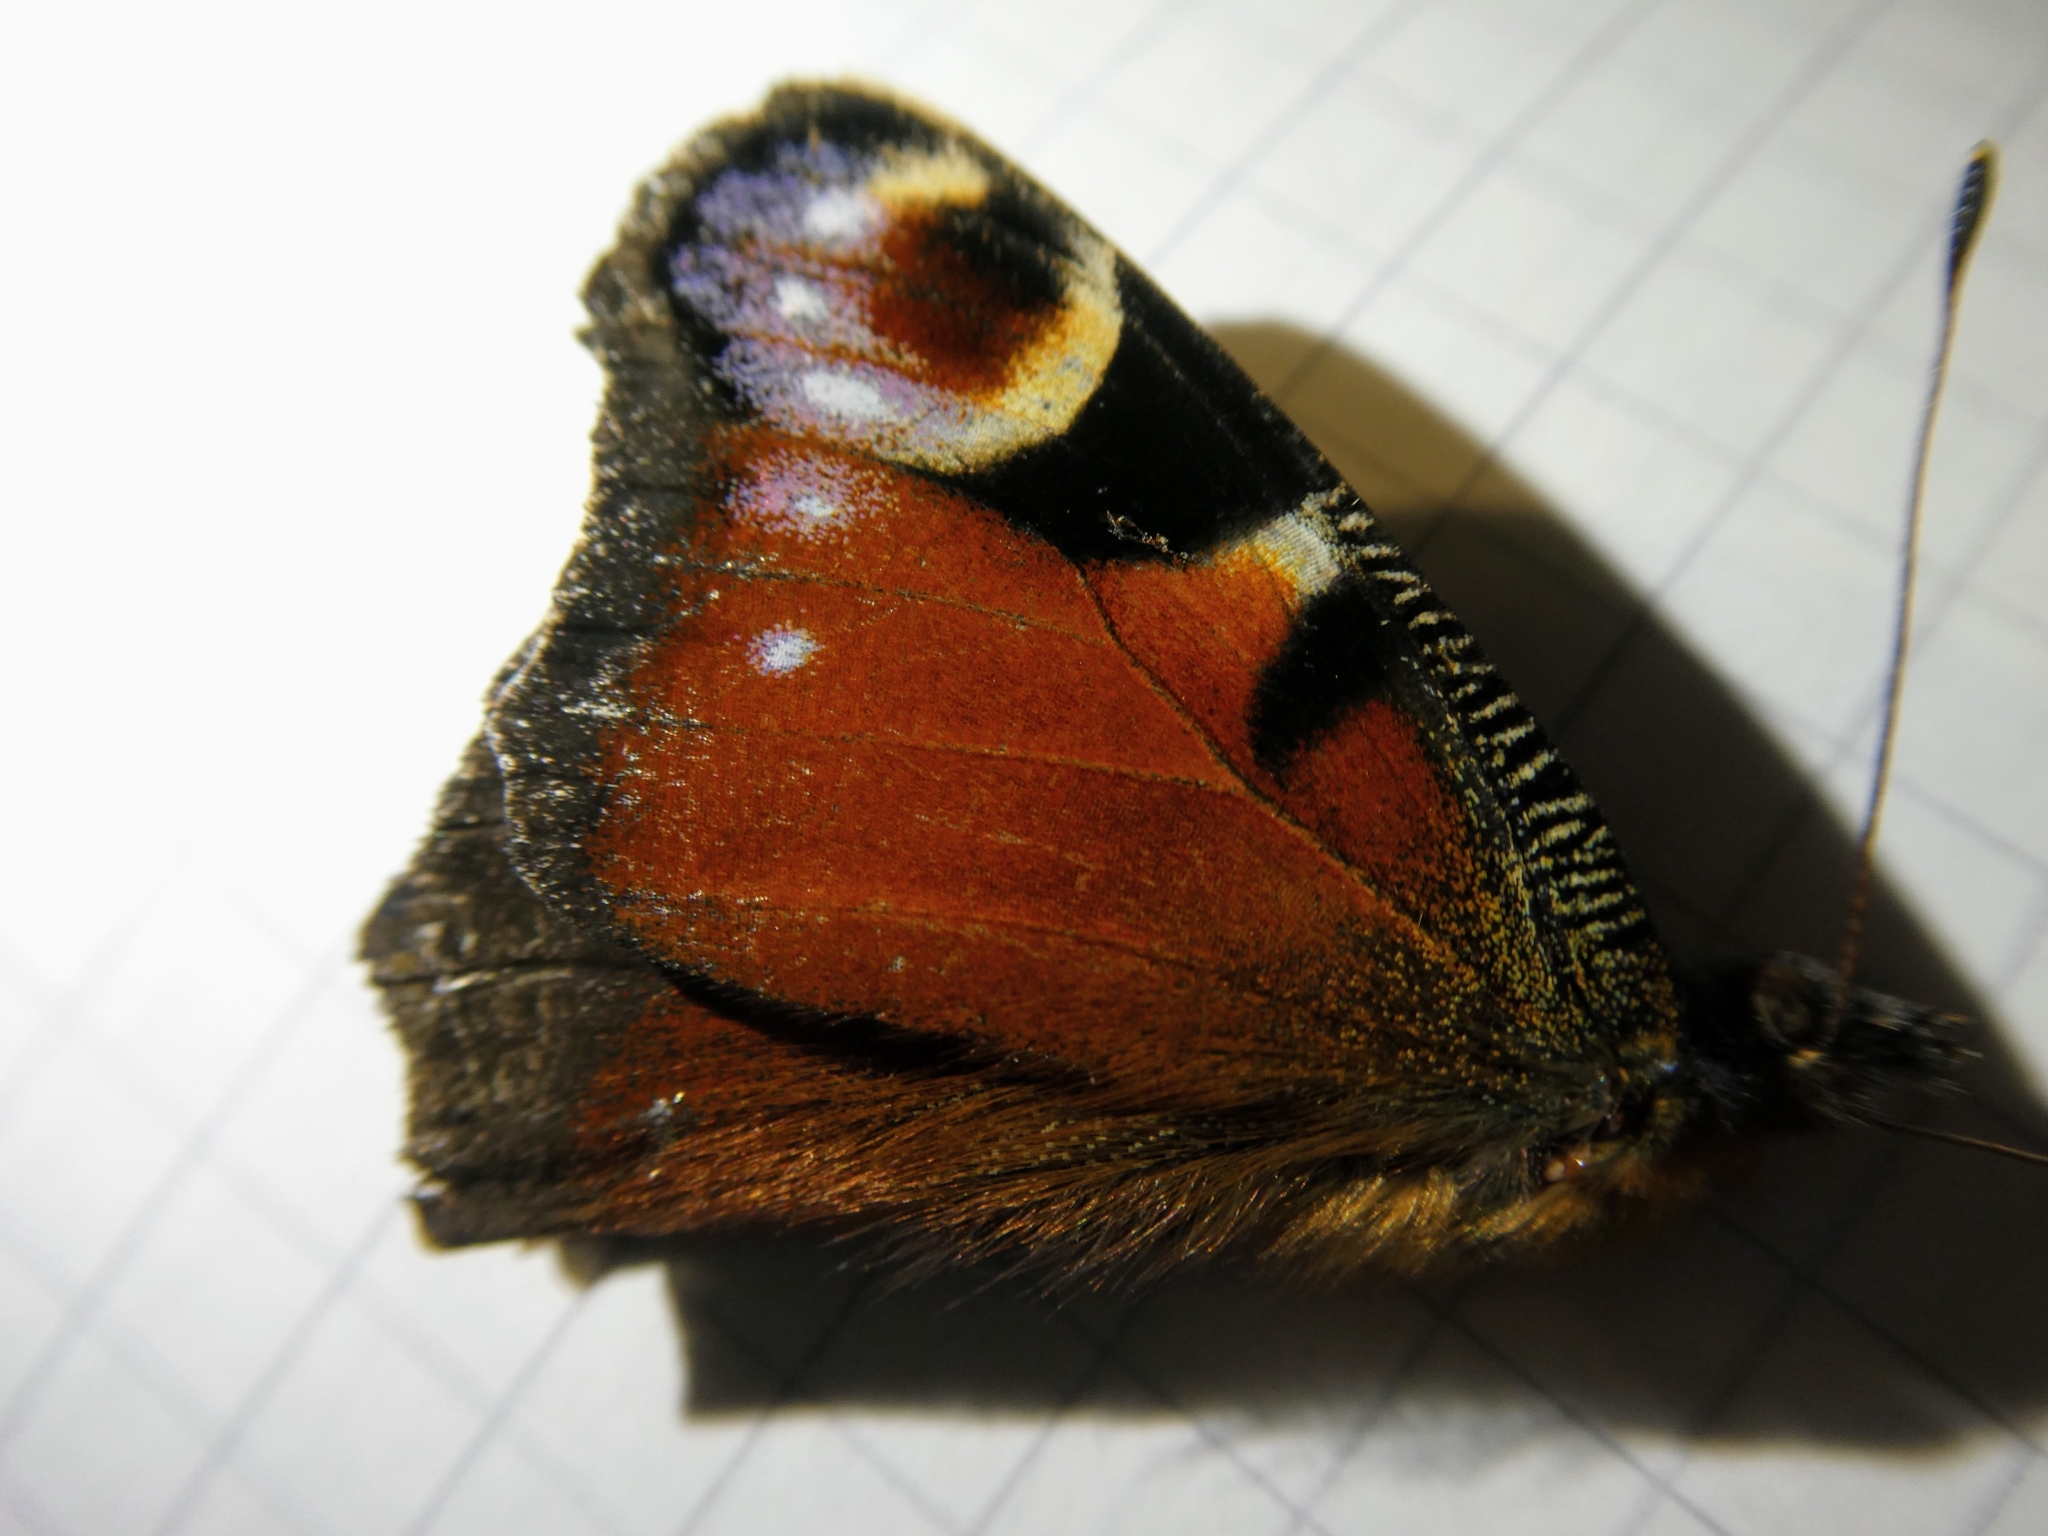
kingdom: Animalia
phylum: Arthropoda
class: Insecta
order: Lepidoptera
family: Nymphalidae
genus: Aglais
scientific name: Aglais io
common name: Peacock
